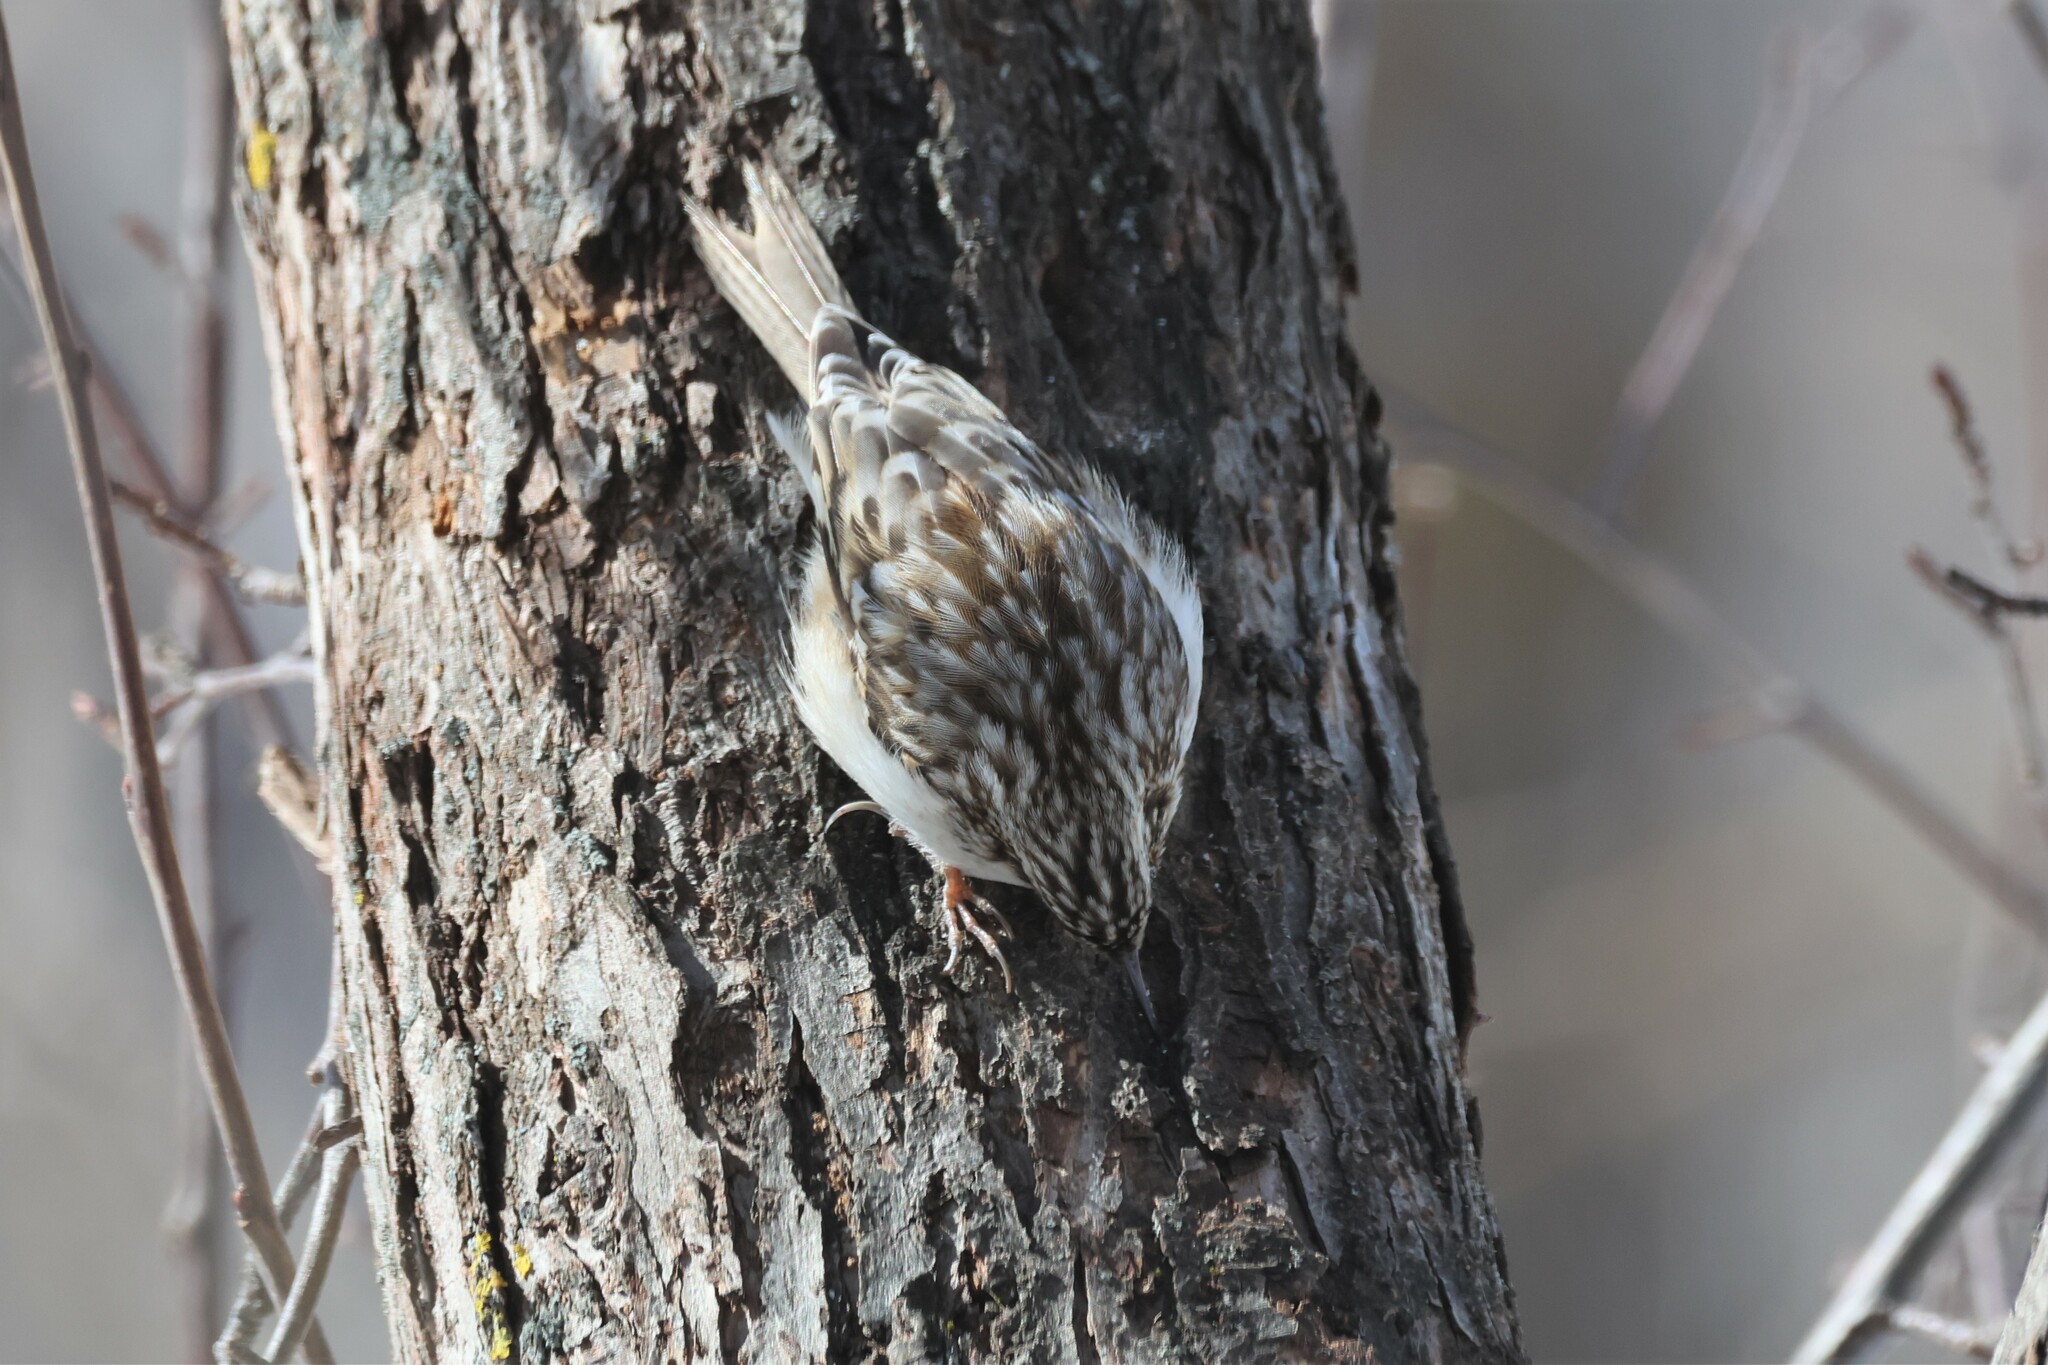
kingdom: Animalia
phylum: Chordata
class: Aves
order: Passeriformes
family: Certhiidae
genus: Certhia
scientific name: Certhia americana
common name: Brown creeper
